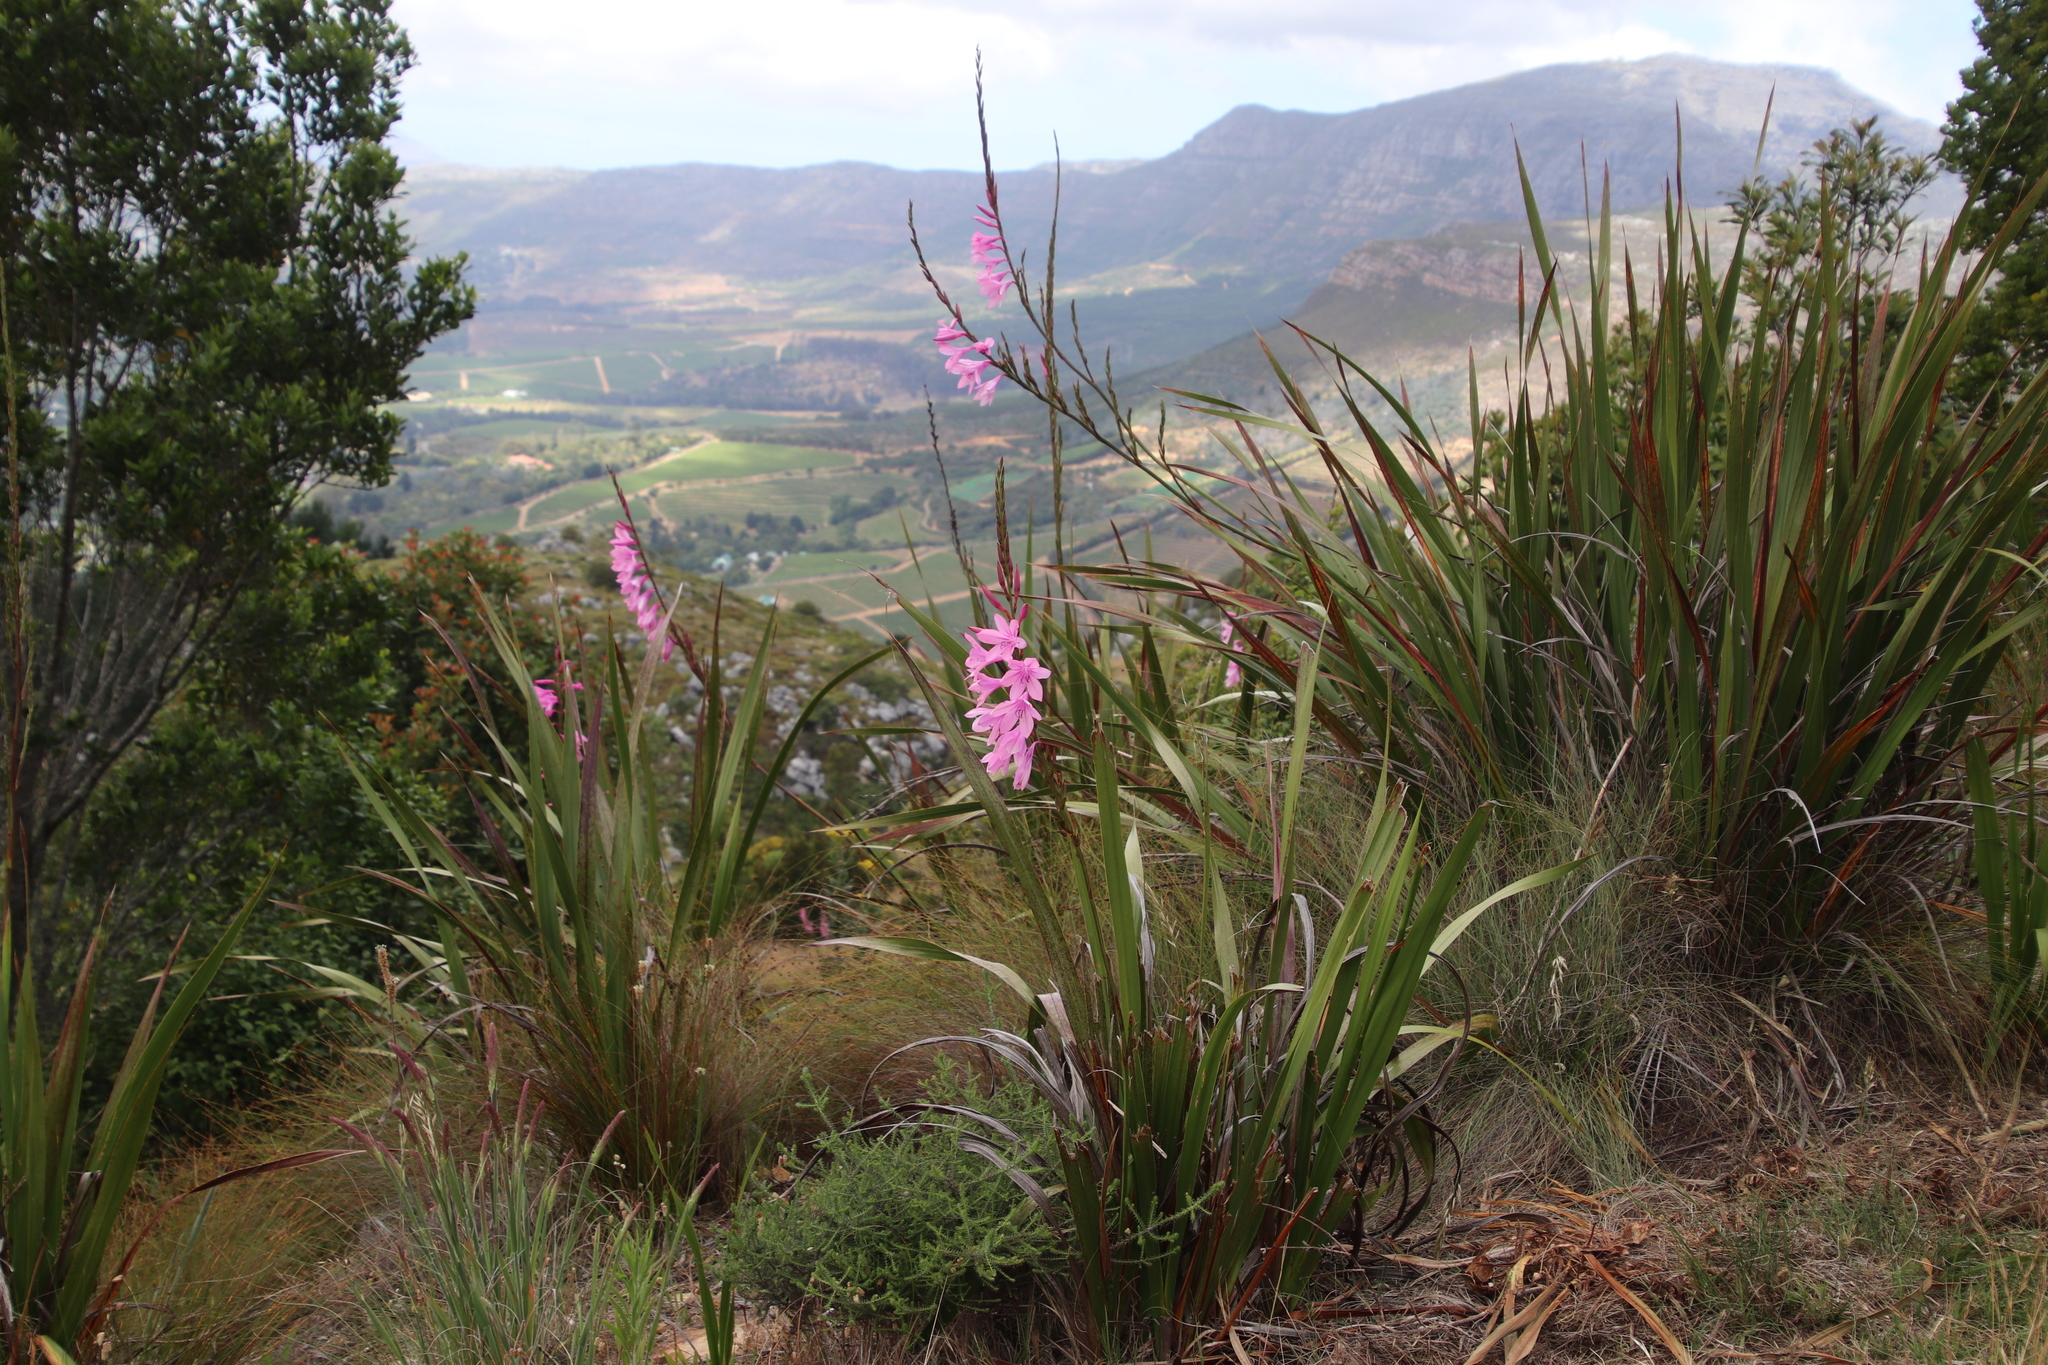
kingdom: Plantae
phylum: Tracheophyta
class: Liliopsida
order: Asparagales
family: Iridaceae
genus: Watsonia
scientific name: Watsonia borbonica
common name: Bugle-lily
